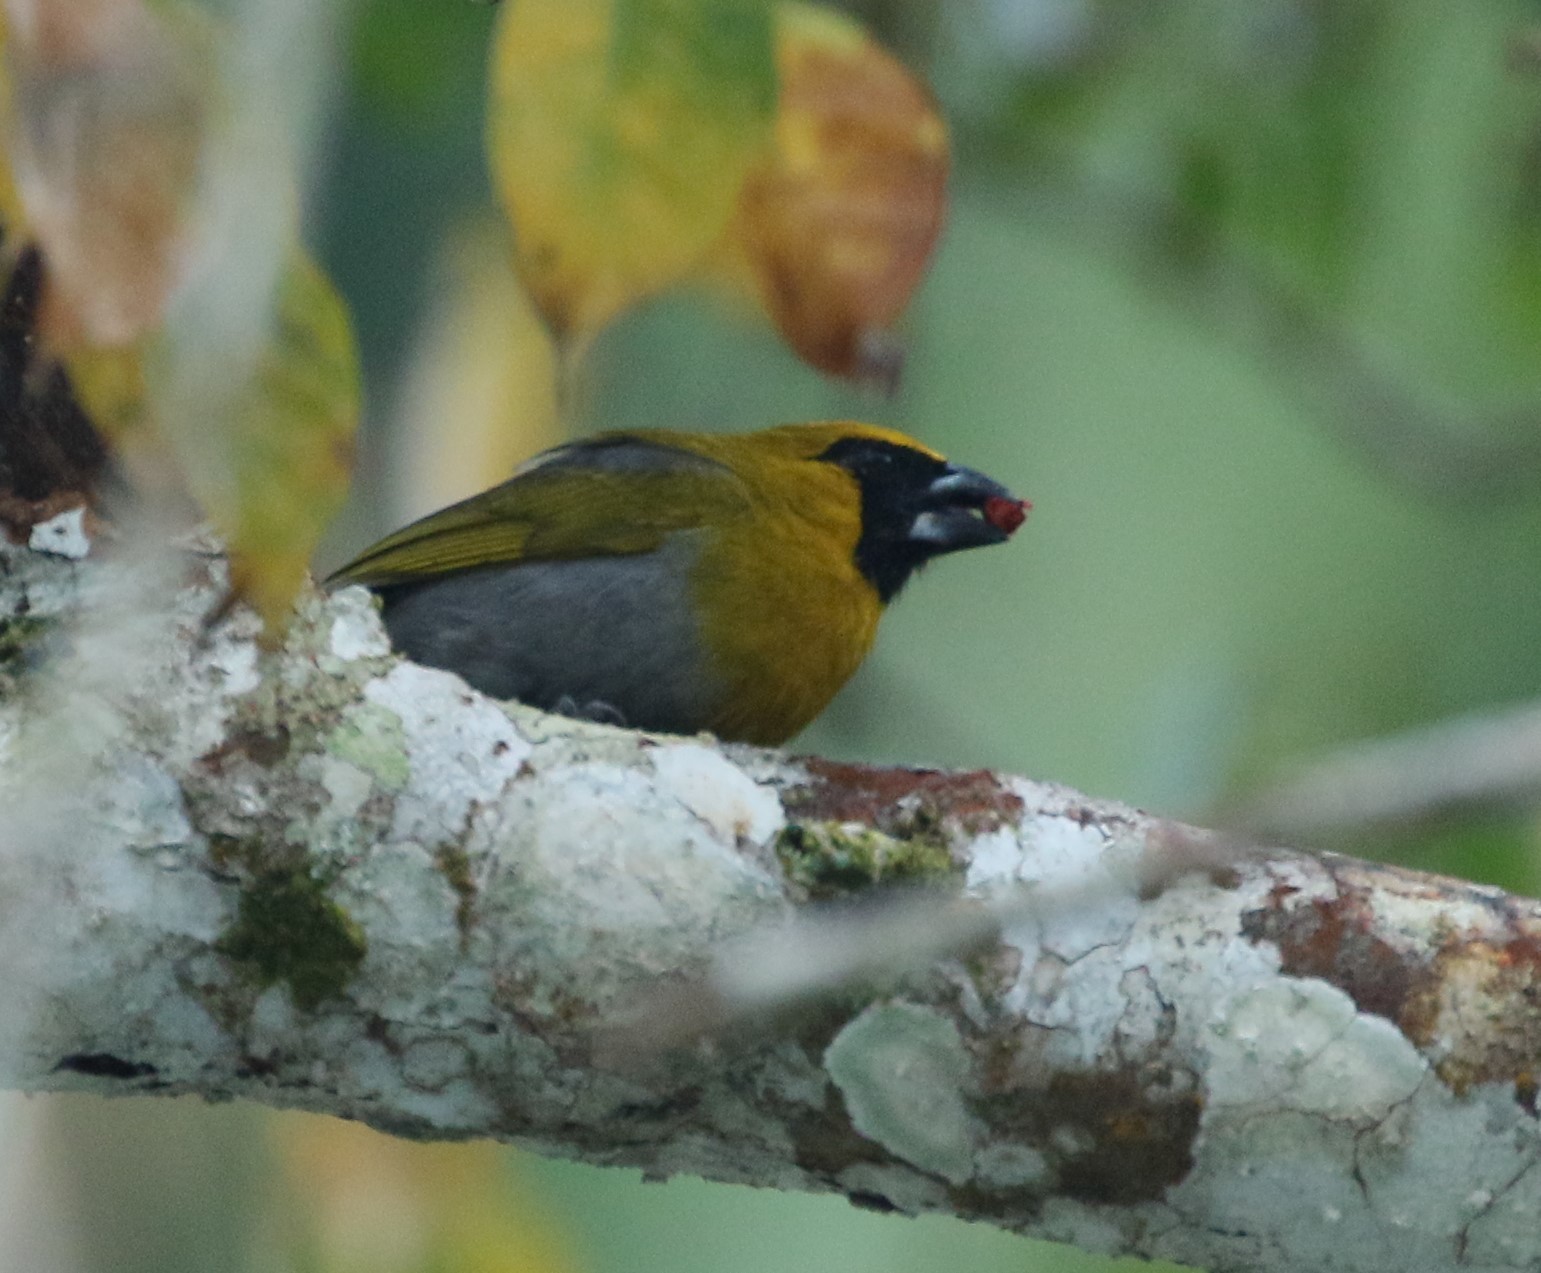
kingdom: Animalia
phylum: Chordata
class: Aves
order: Passeriformes
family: Cardinalidae
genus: Caryothraustes
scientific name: Caryothraustes poliogaster
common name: Black-faced grosbeak
